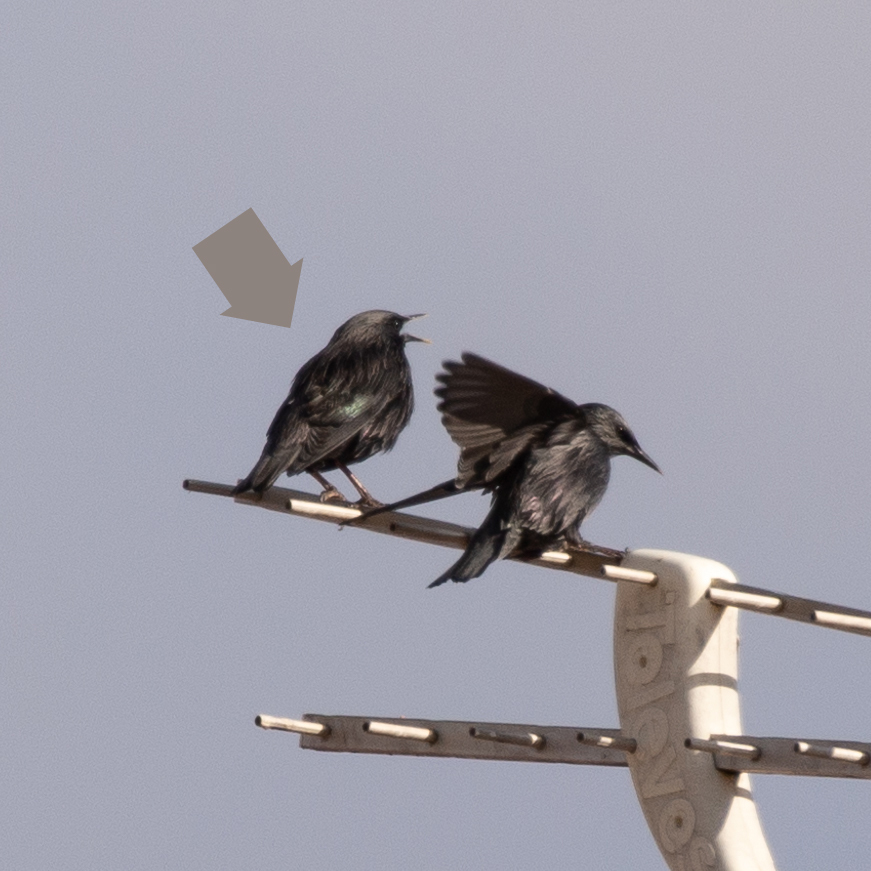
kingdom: Animalia
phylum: Chordata
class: Aves
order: Passeriformes
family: Sturnidae
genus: Sturnus
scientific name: Sturnus unicolor
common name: Spotless starling
